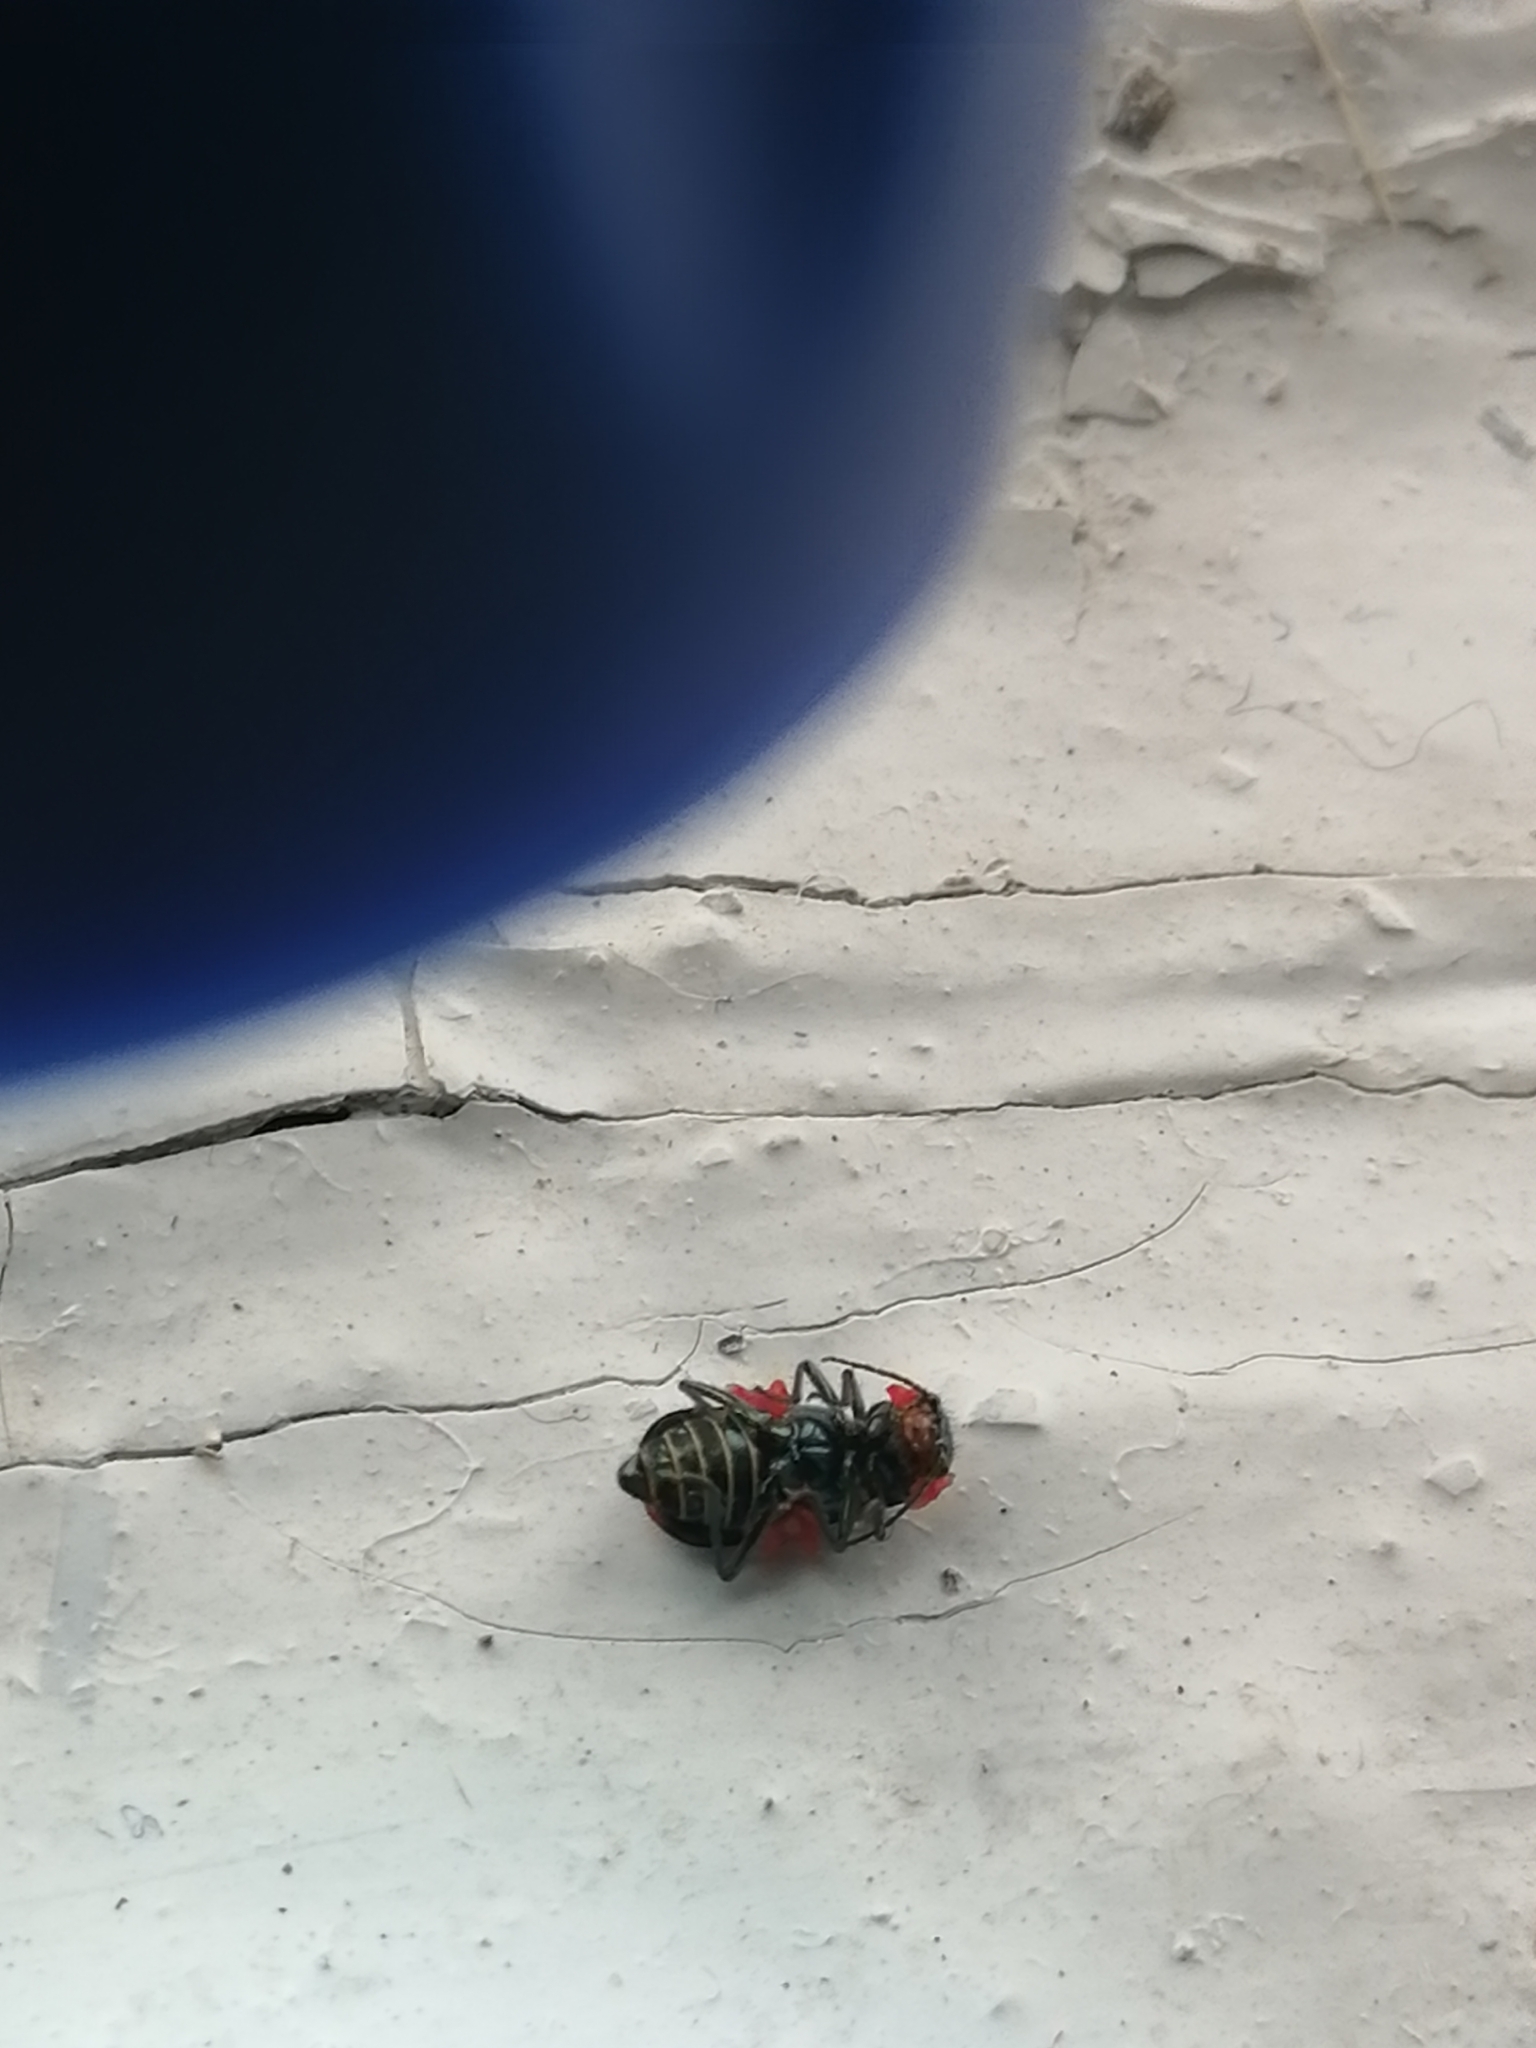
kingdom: Animalia
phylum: Arthropoda
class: Insecta
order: Coleoptera
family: Melyridae
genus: Malachius
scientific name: Malachius bipustulatus
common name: Malachite beetle
